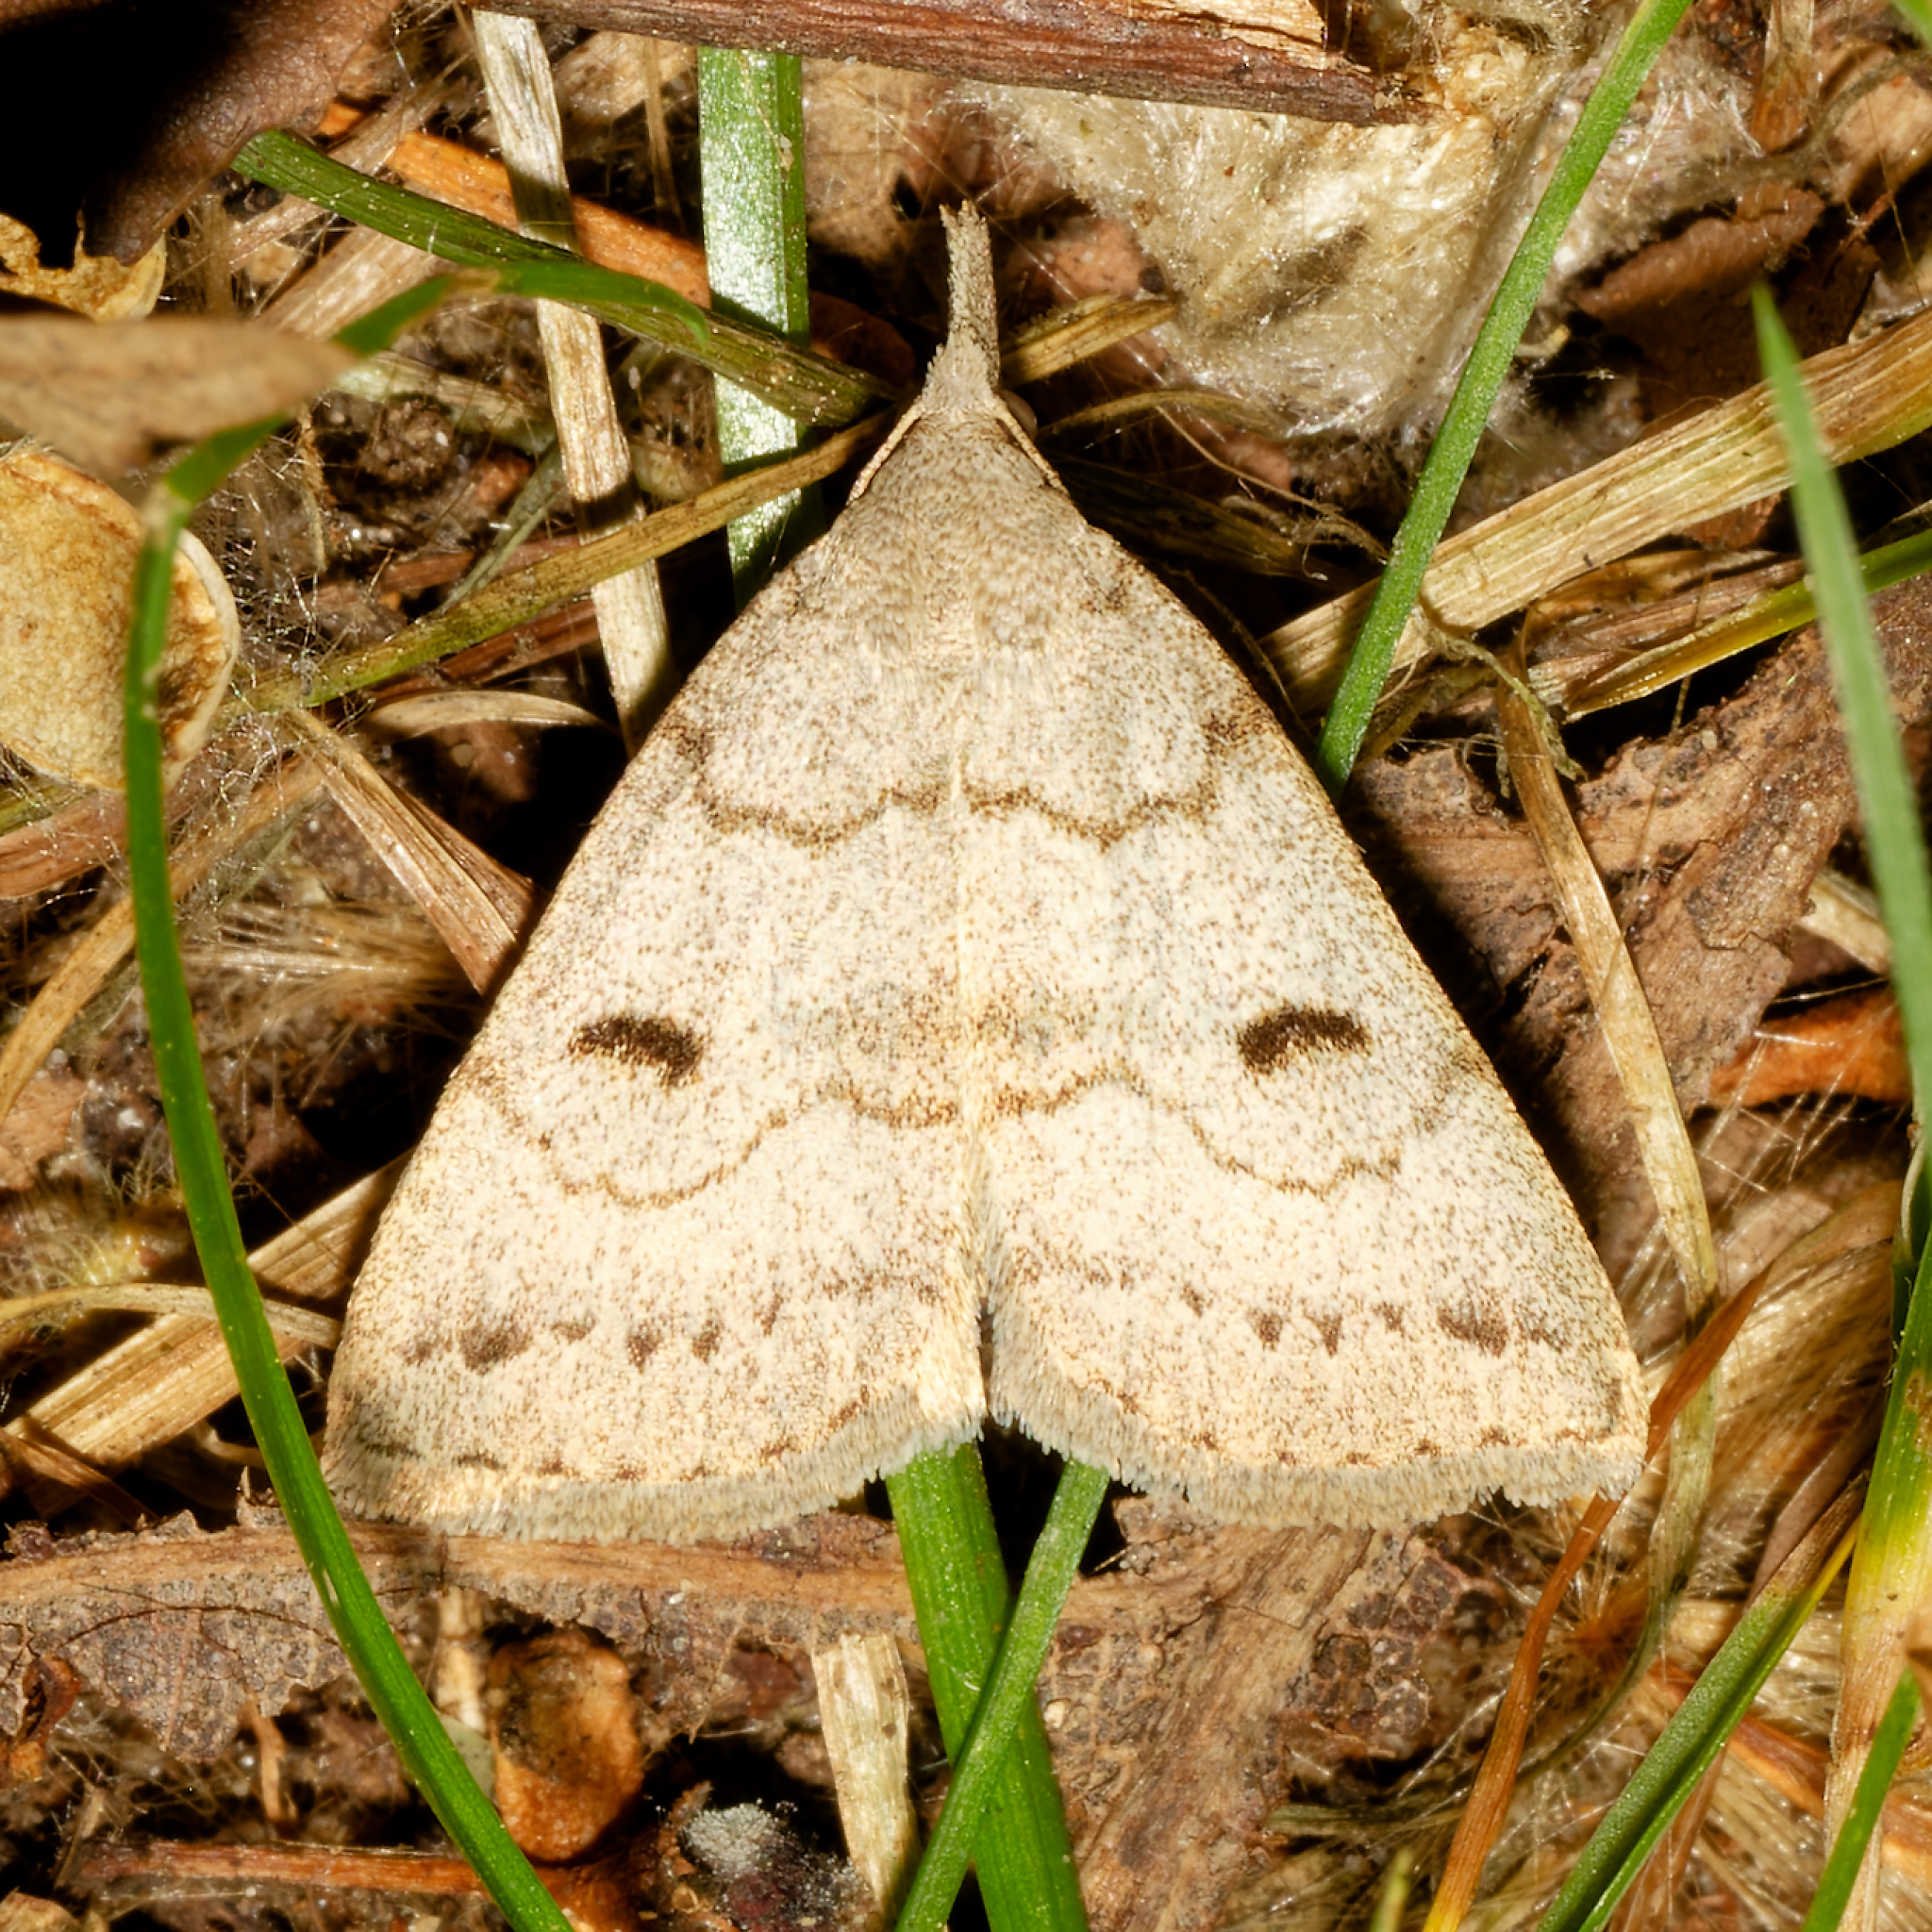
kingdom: Animalia
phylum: Arthropoda
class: Insecta
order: Lepidoptera
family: Erebidae
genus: Macrochilo
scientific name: Macrochilo morbidalis
